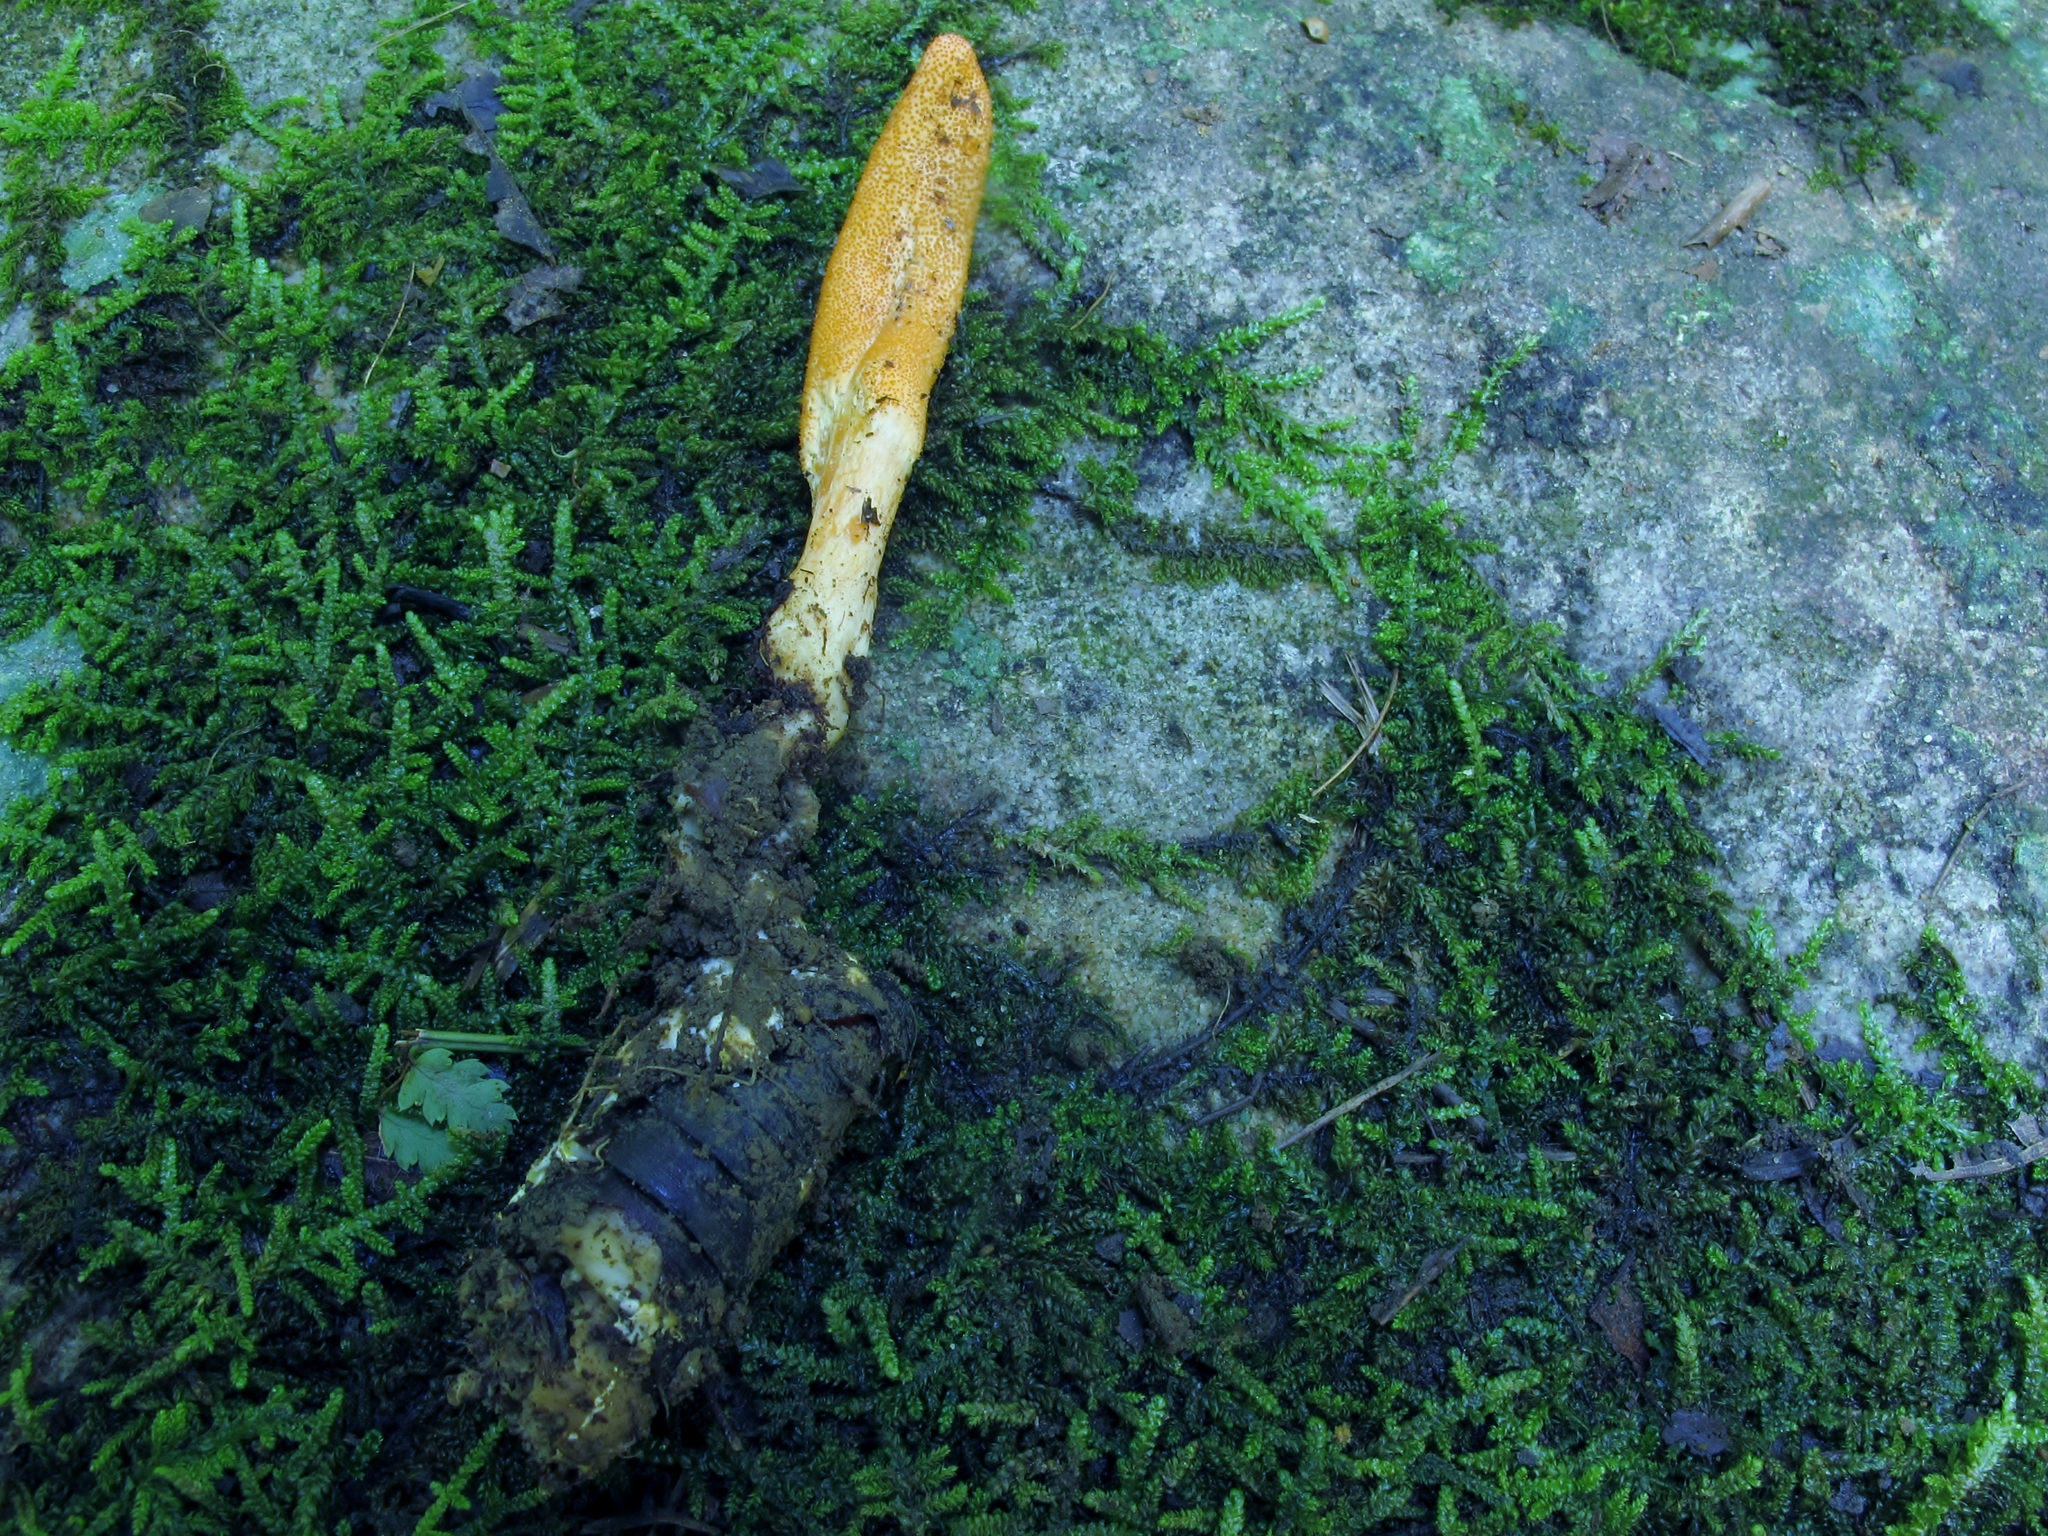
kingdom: Fungi
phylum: Ascomycota
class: Sordariomycetes
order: Hypocreales
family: Cordycipitaceae
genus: Cordyceps
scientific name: Cordyceps militaris
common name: Scarlet caterpillar fungus
